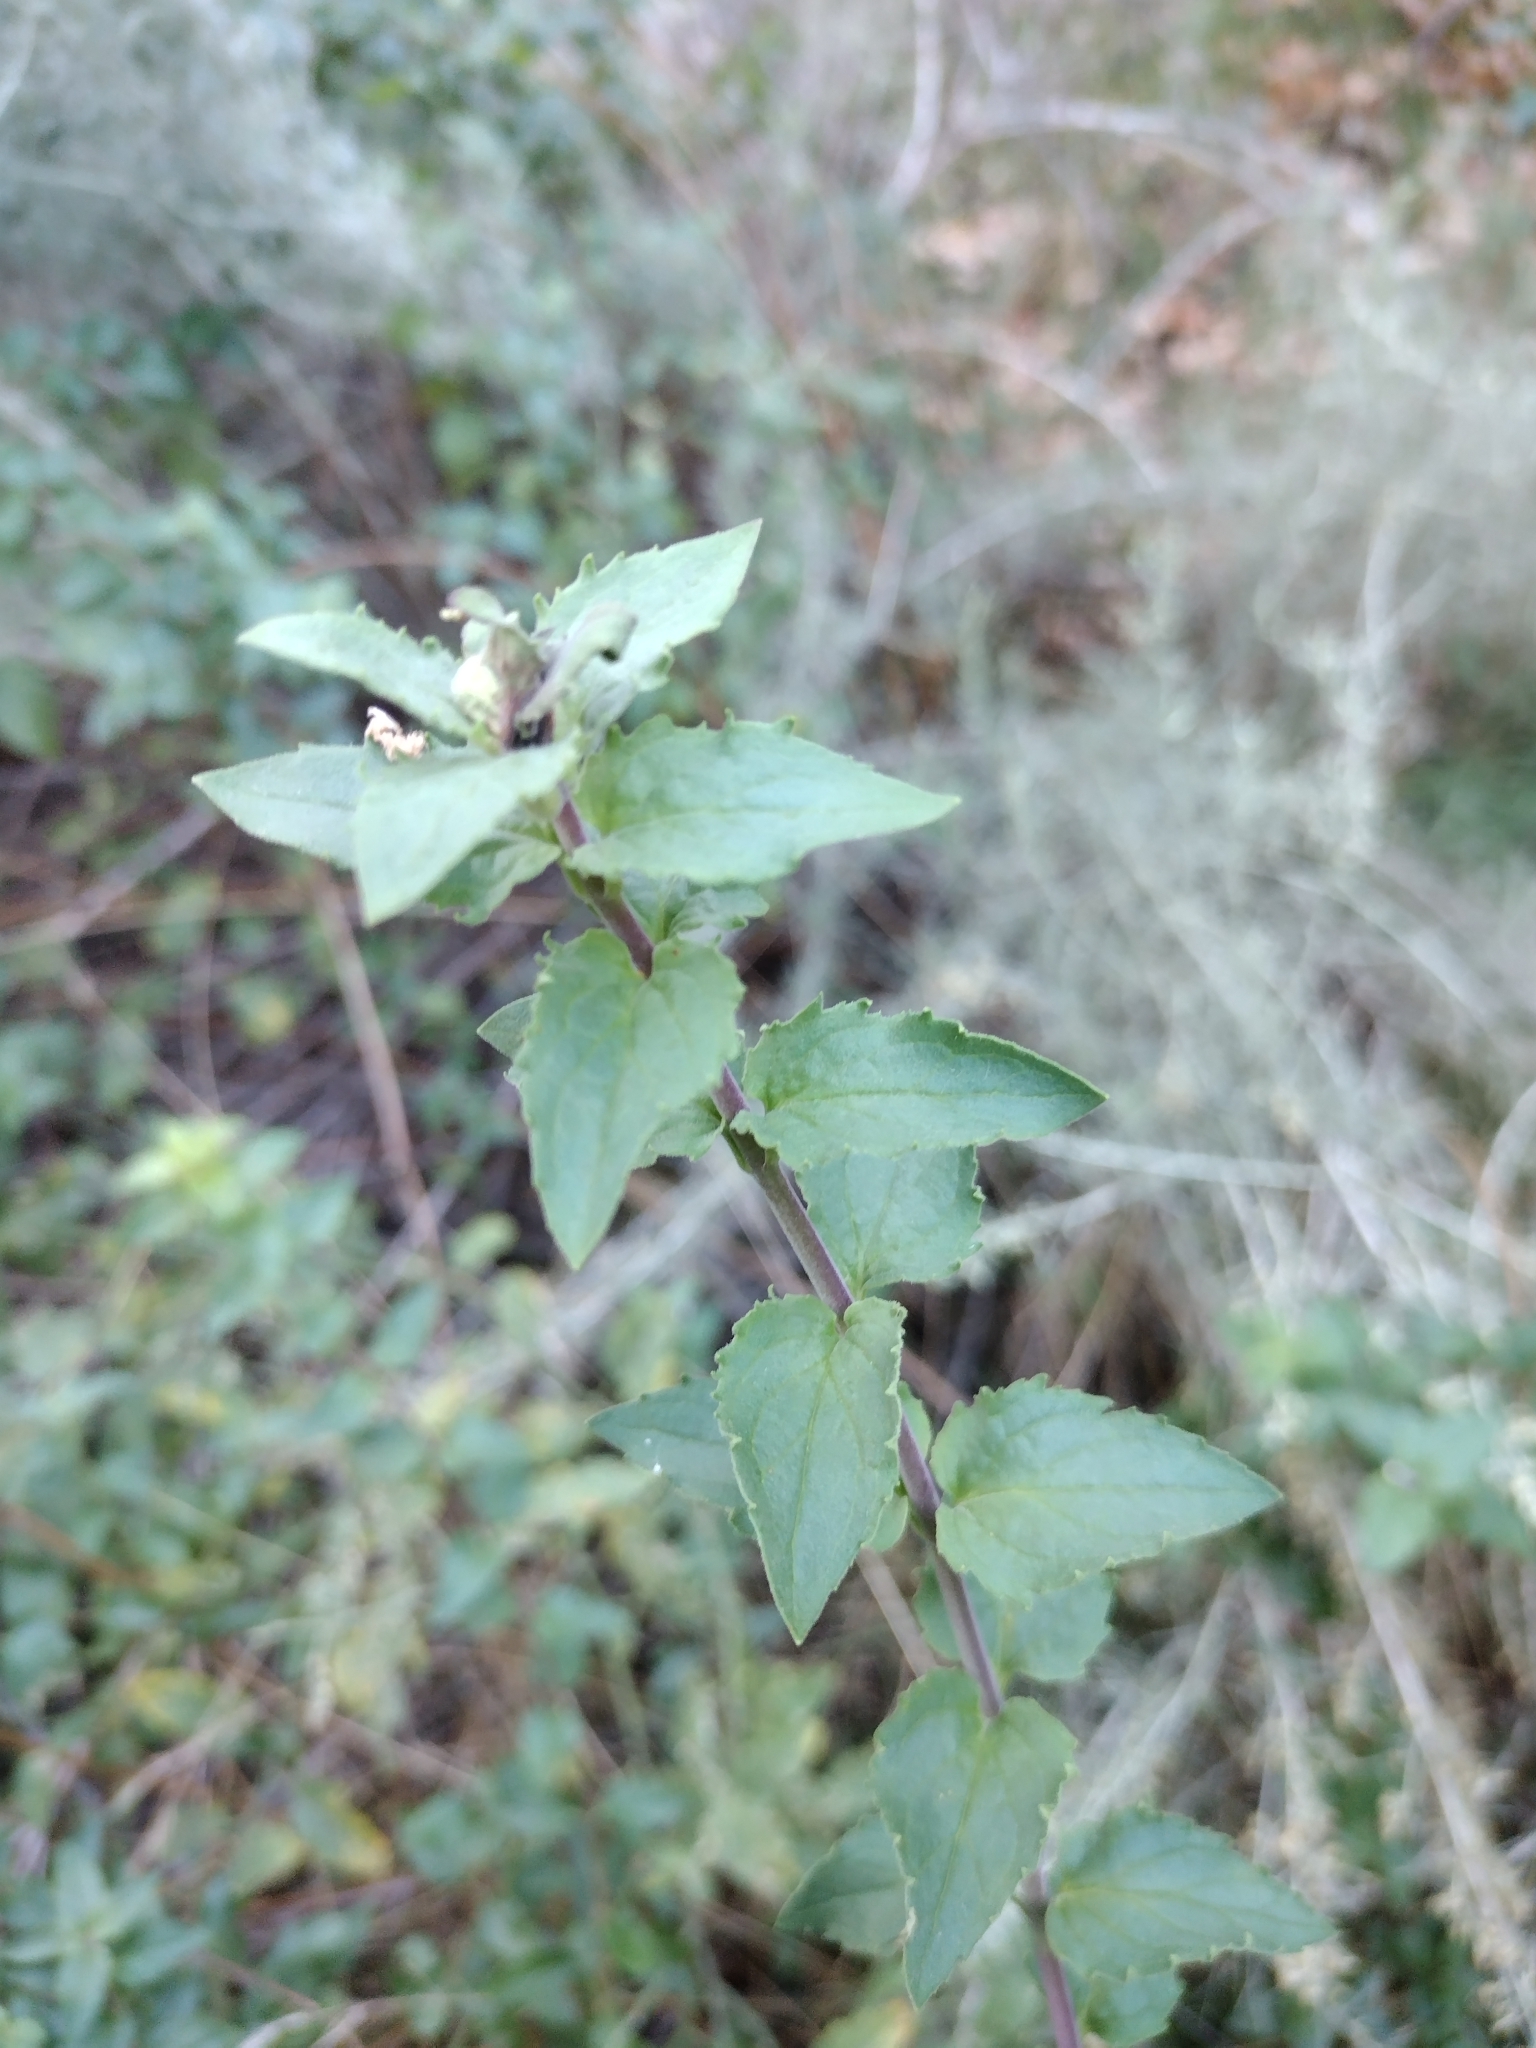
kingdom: Plantae
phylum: Tracheophyta
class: Magnoliopsida
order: Lamiales
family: Plantaginaceae
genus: Keckiella
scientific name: Keckiella cordifolia
